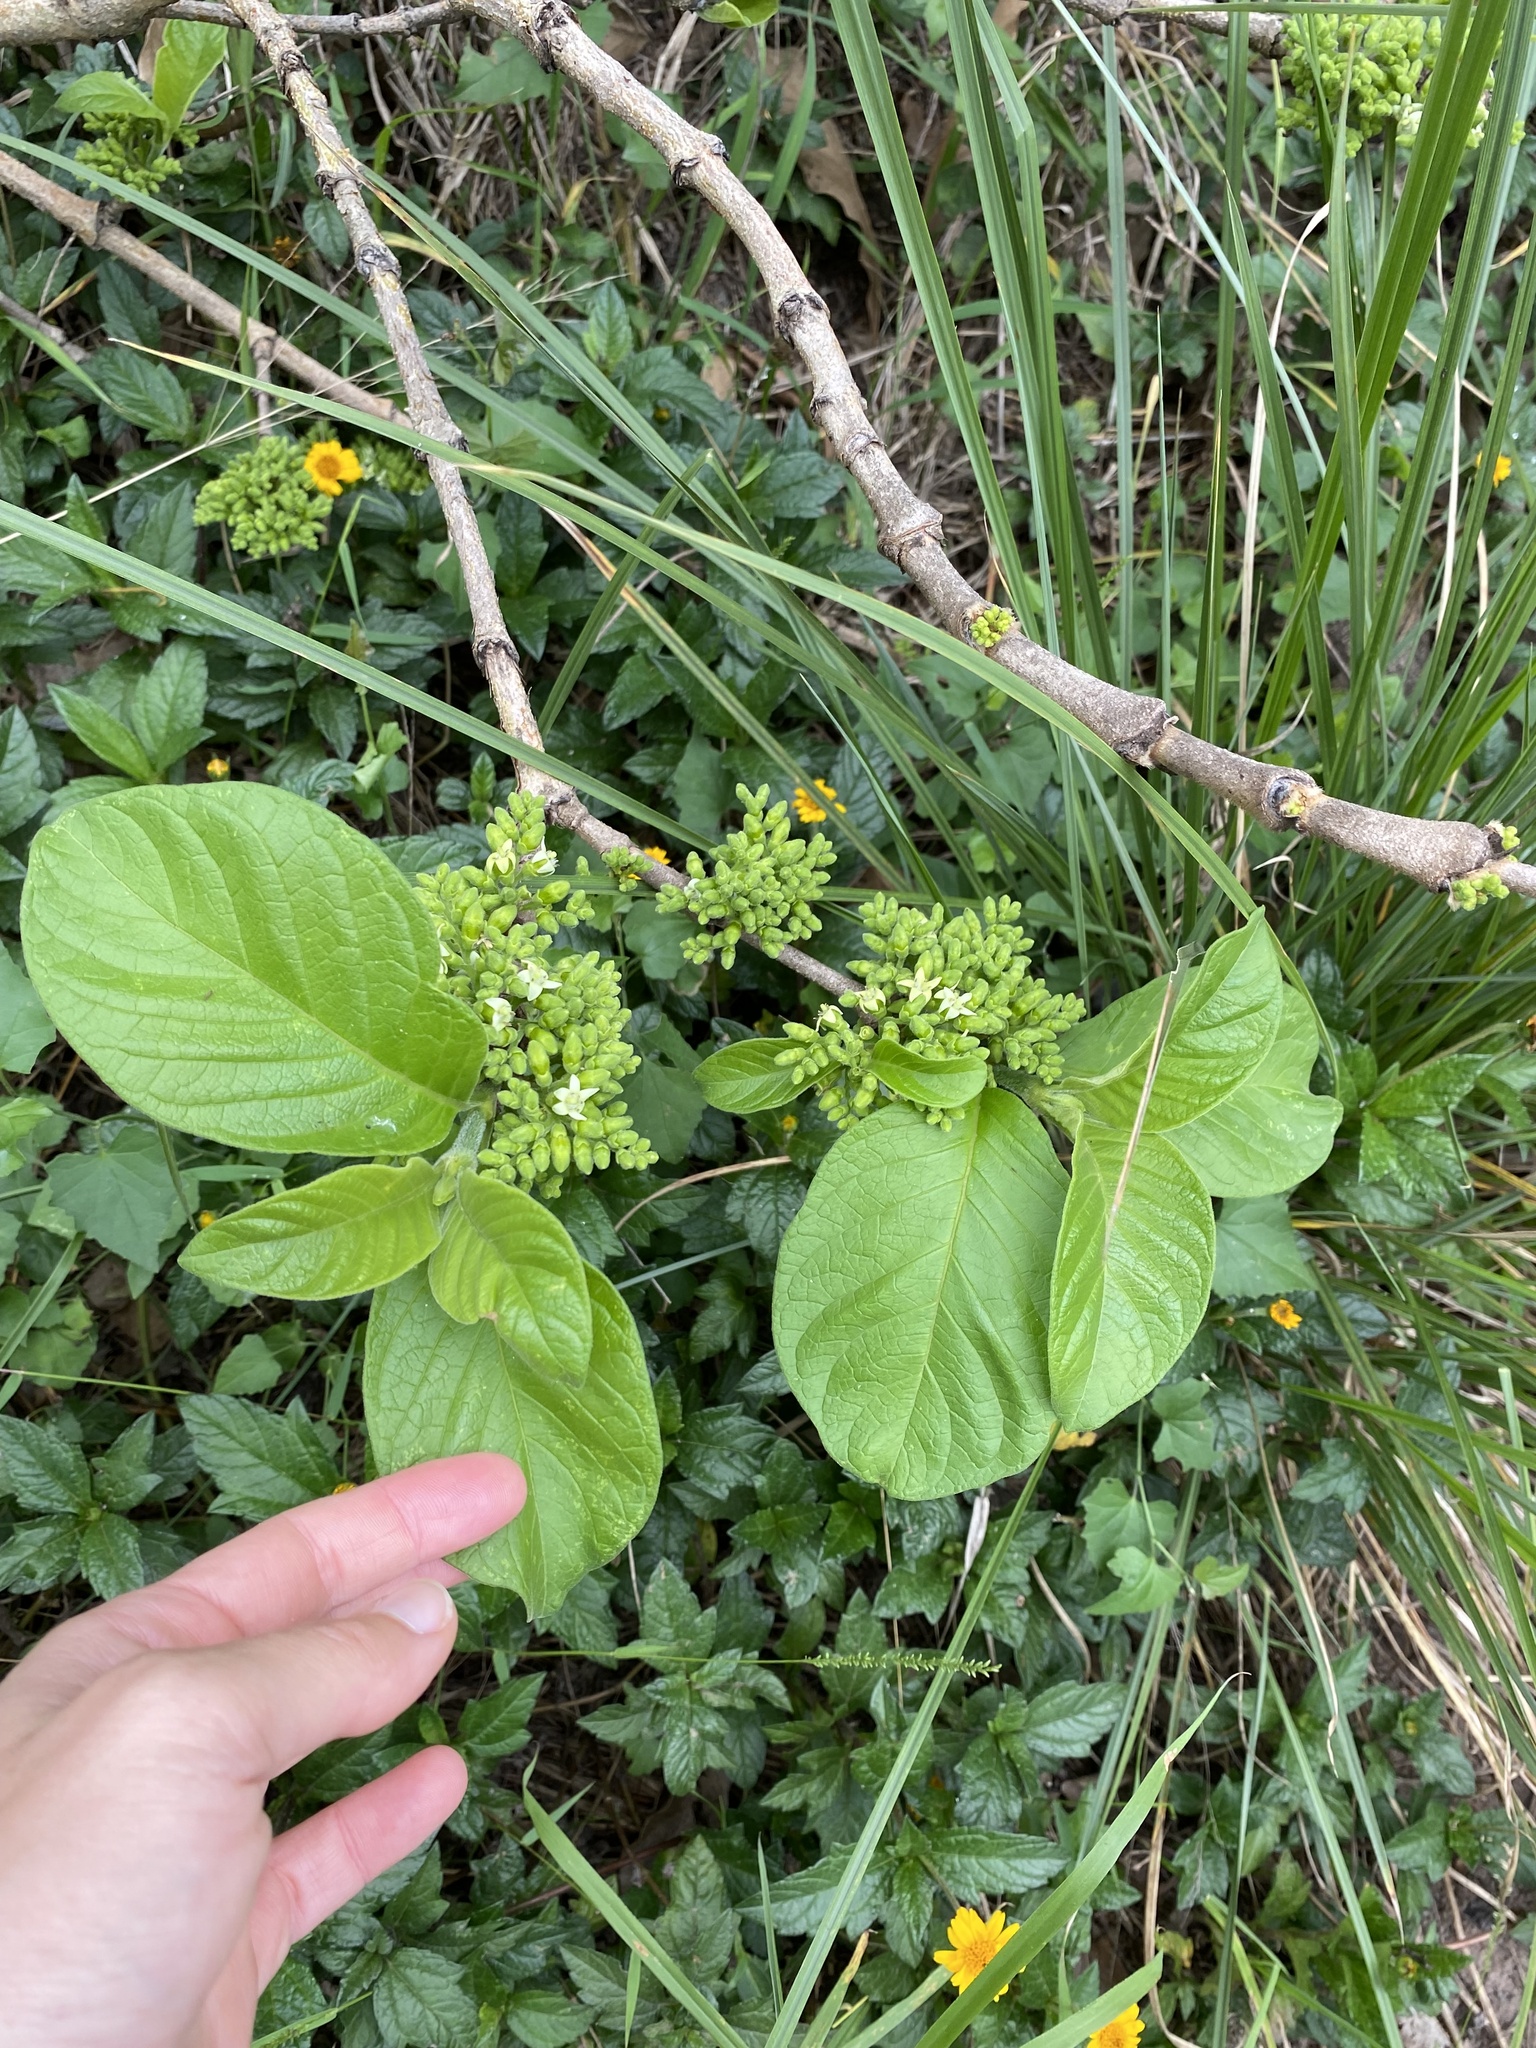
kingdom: Plantae
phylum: Tracheophyta
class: Magnoliopsida
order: Gentianales
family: Rubiaceae
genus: Vangueria
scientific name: Vangueria infausta
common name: Medlar
